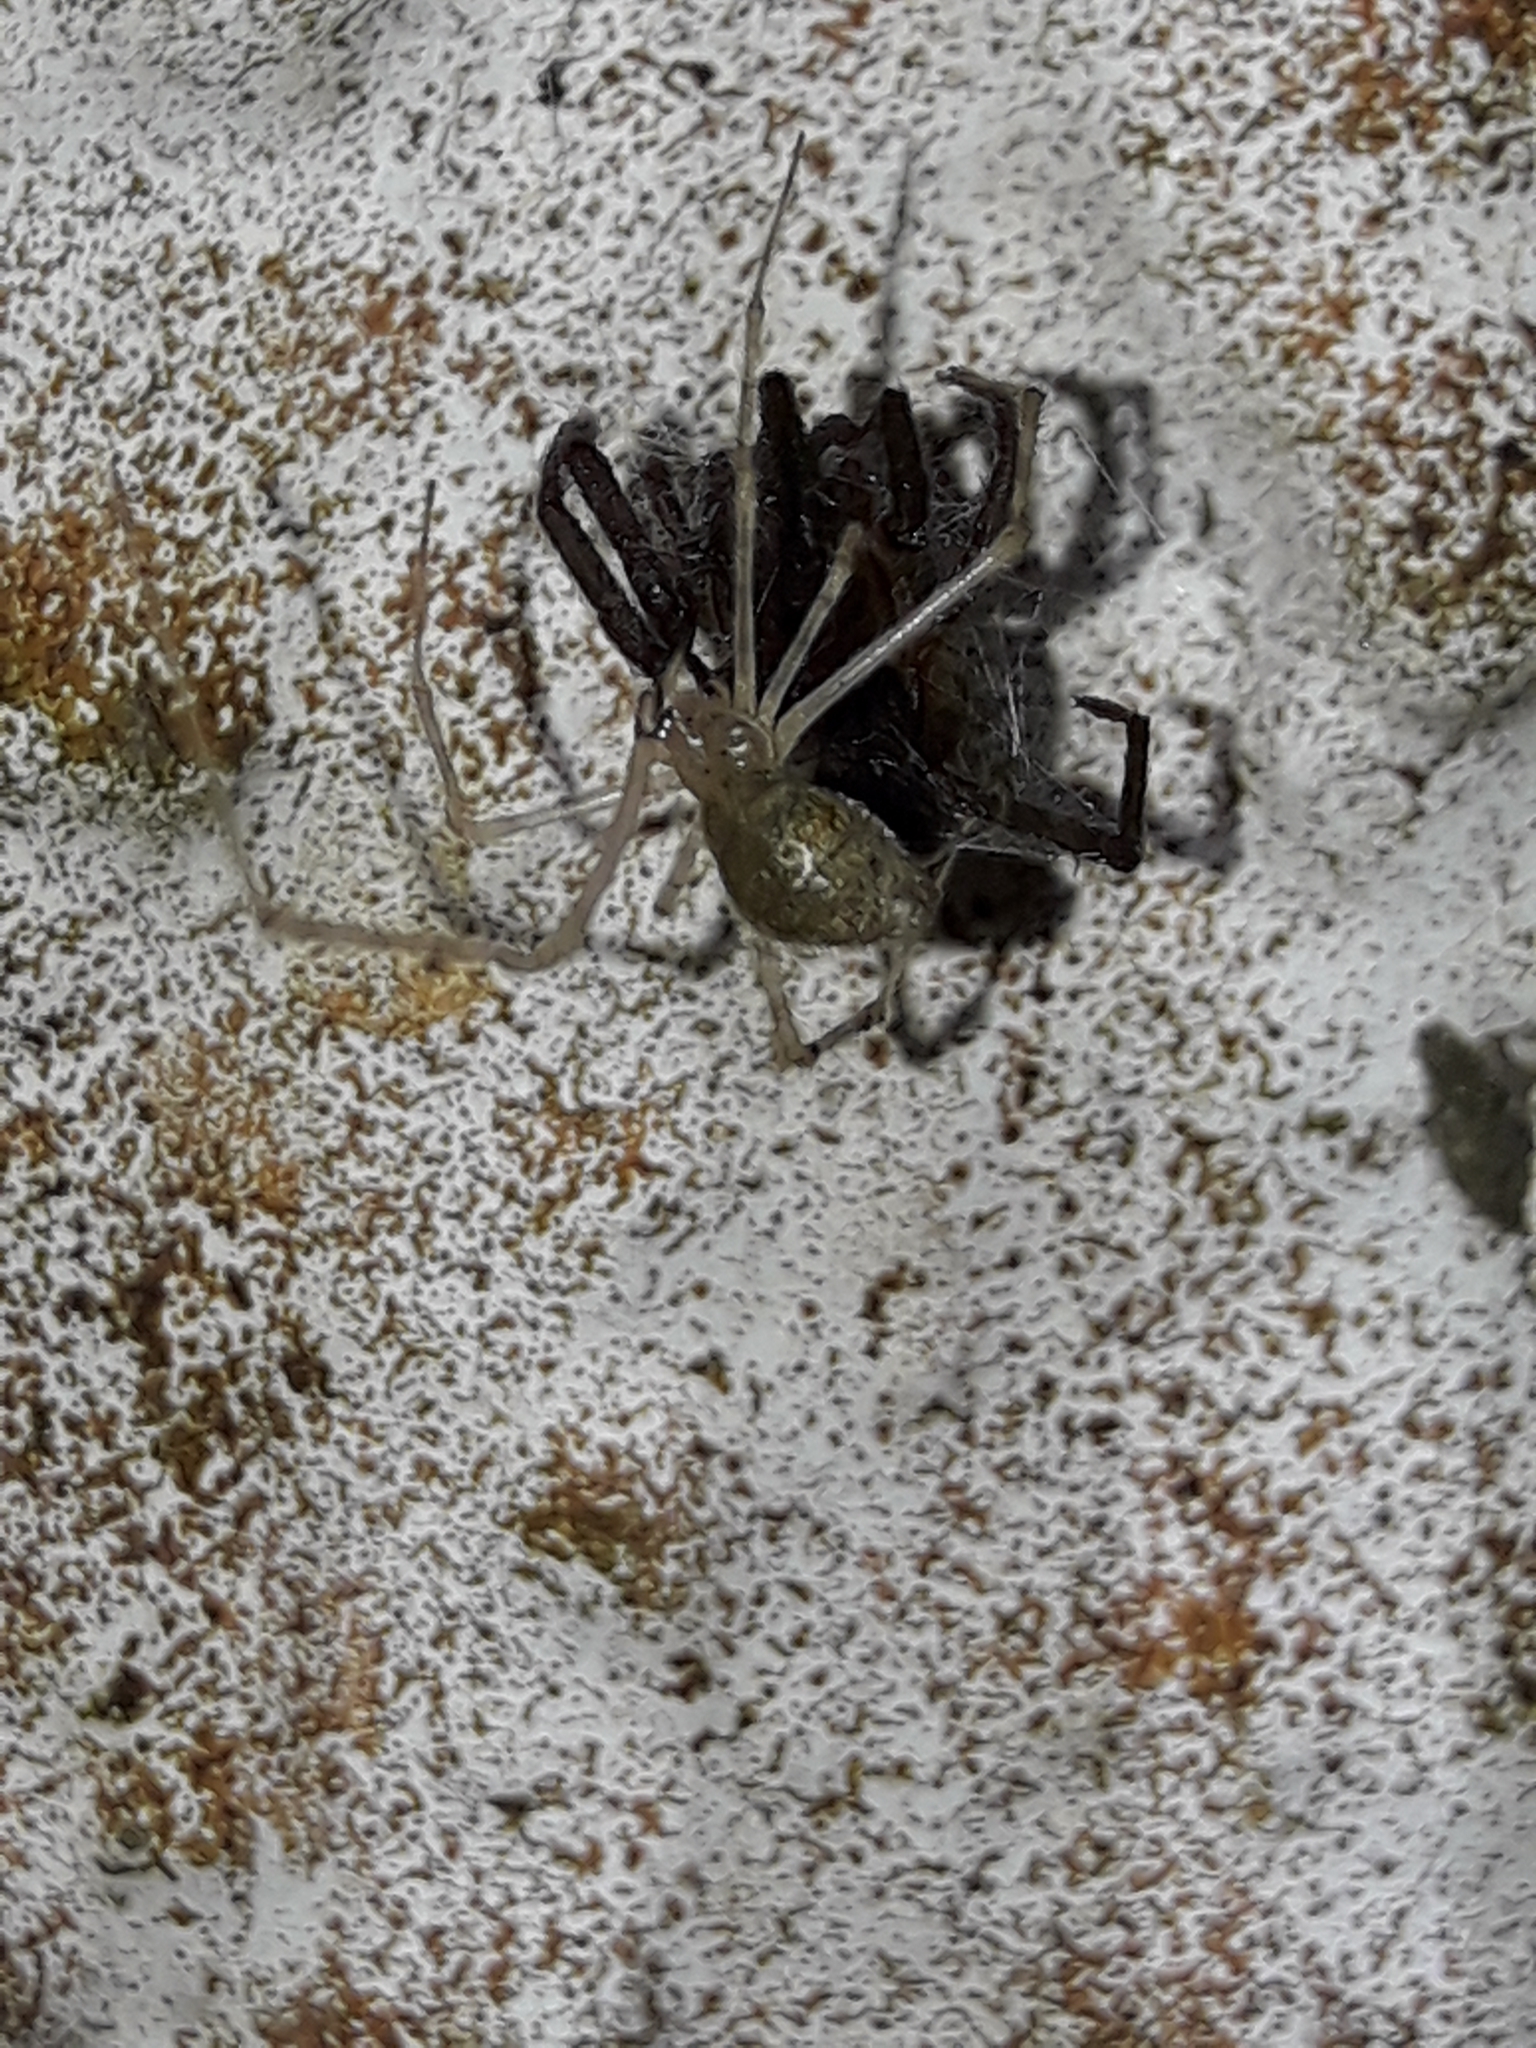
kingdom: Animalia
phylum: Arthropoda
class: Arachnida
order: Araneae
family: Theridiidae
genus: Cryptachaea
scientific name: Cryptachaea gigantipes
